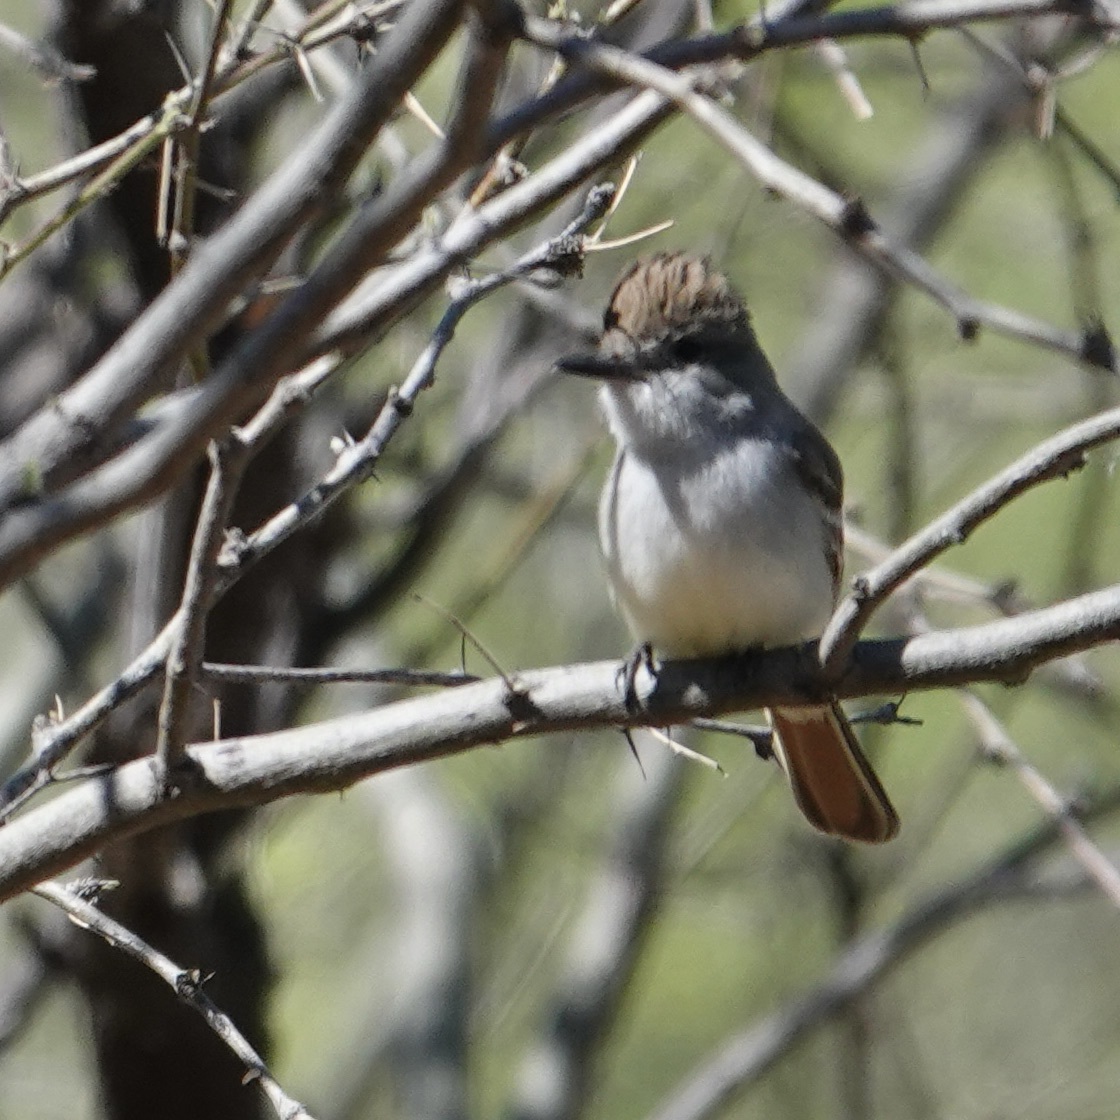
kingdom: Animalia
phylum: Chordata
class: Aves
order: Passeriformes
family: Tyrannidae
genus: Myiarchus
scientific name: Myiarchus cinerascens
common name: Ash-throated flycatcher
